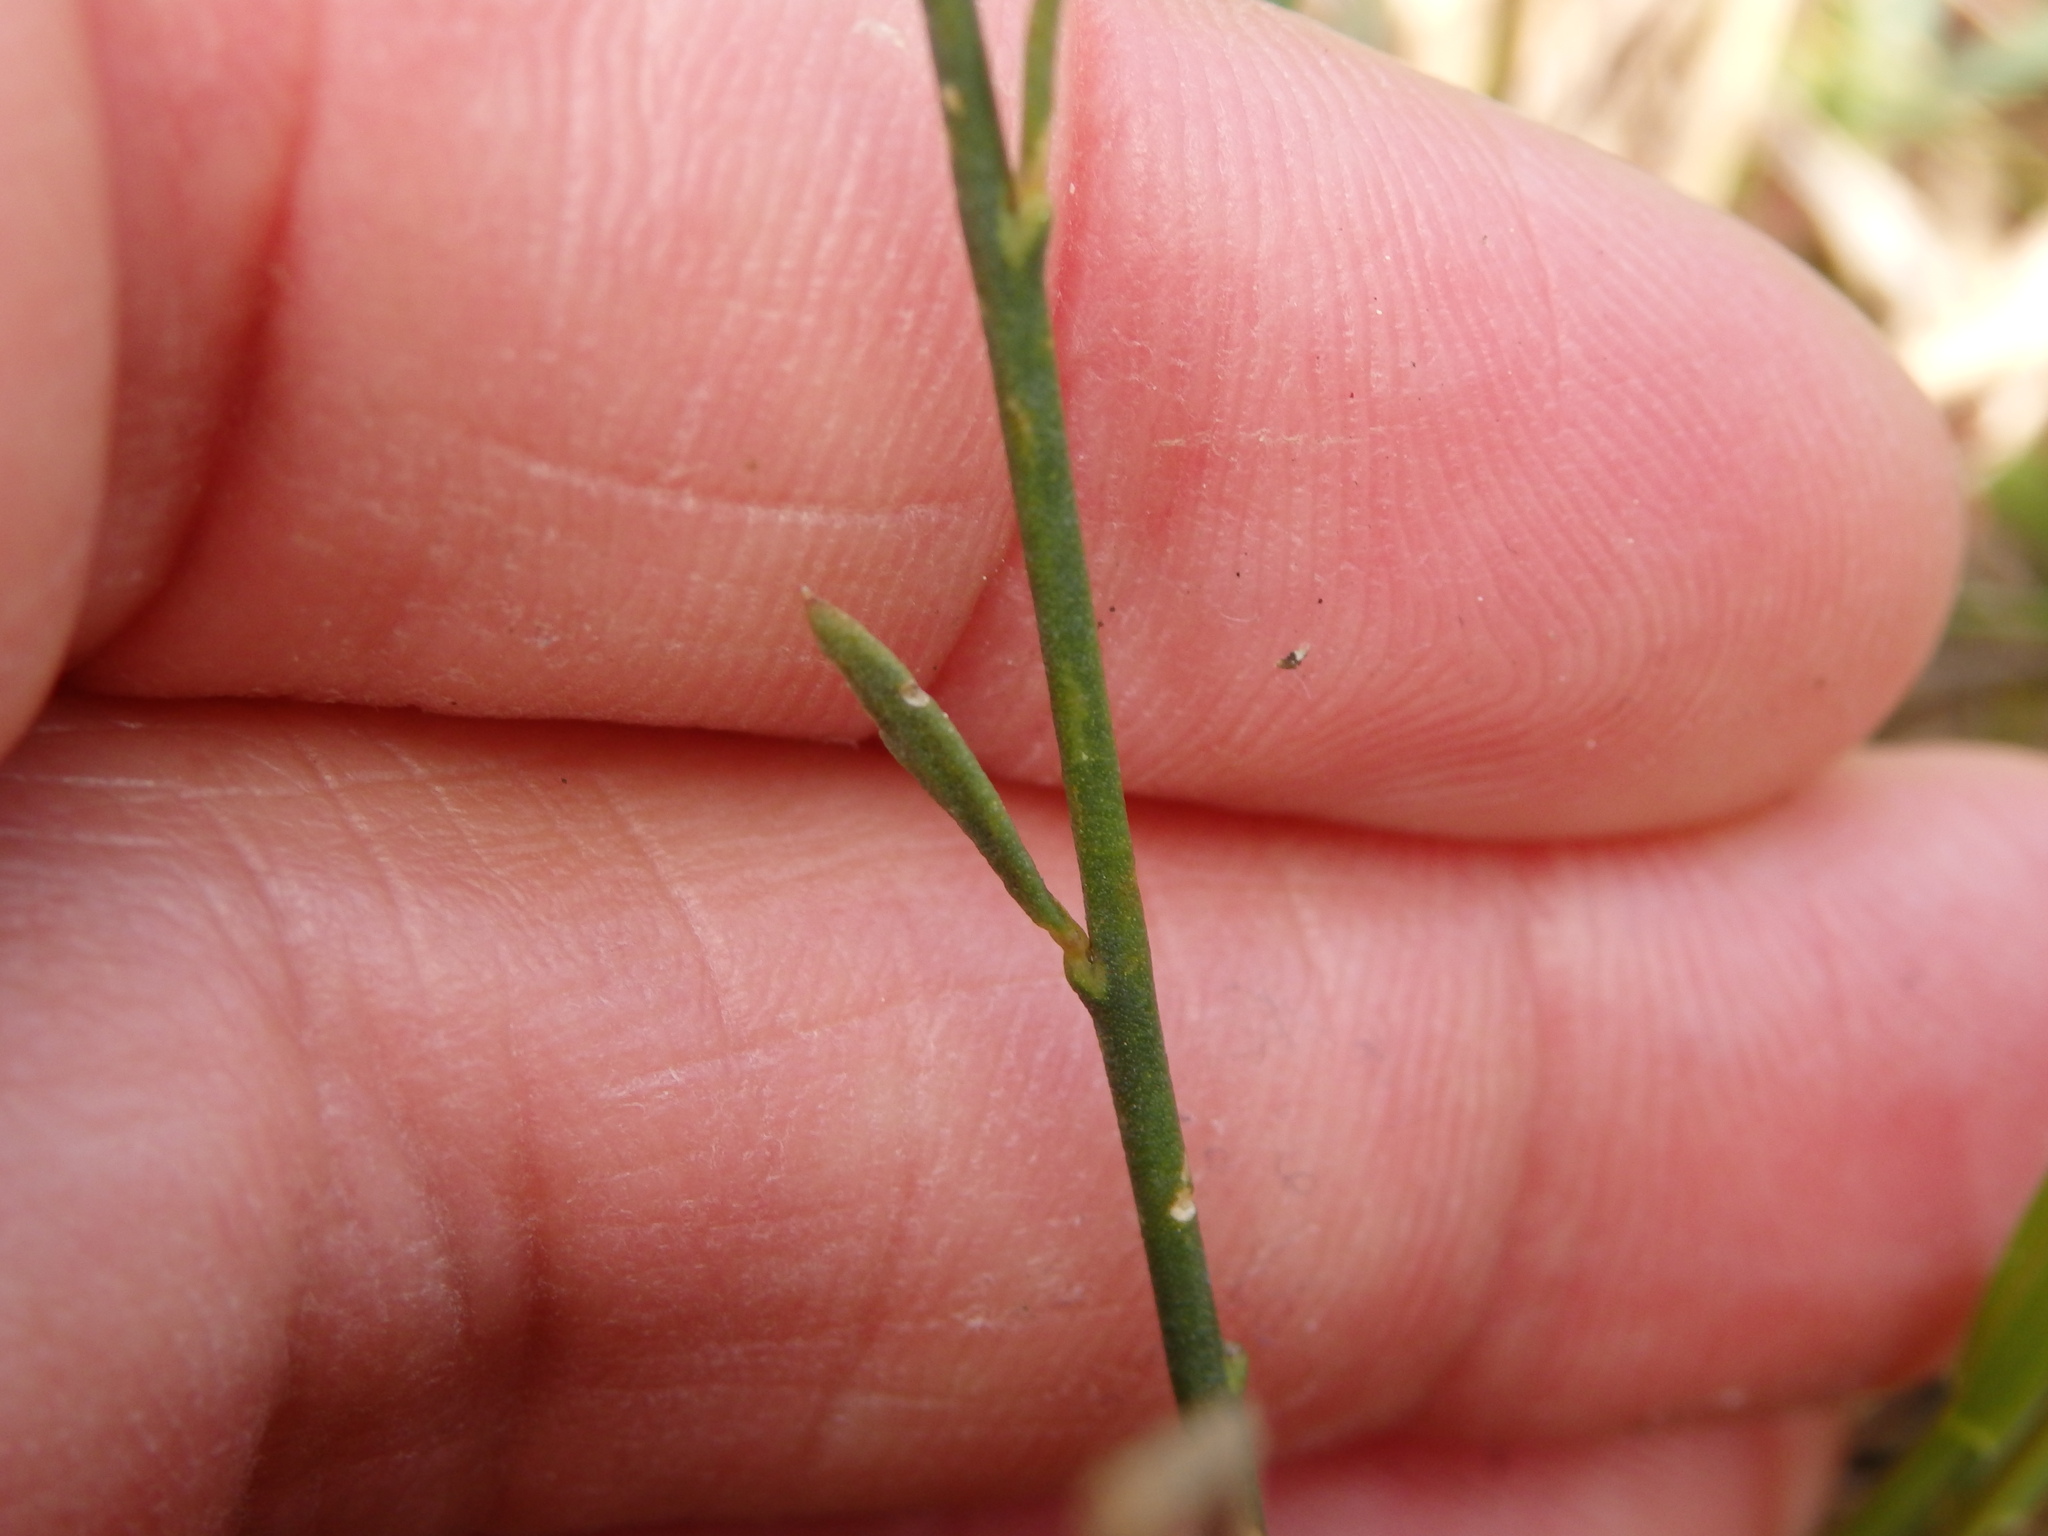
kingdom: Plantae
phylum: Tracheophyta
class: Magnoliopsida
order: Fabales
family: Polygalaceae
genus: Polygala
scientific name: Polygala microphylla
